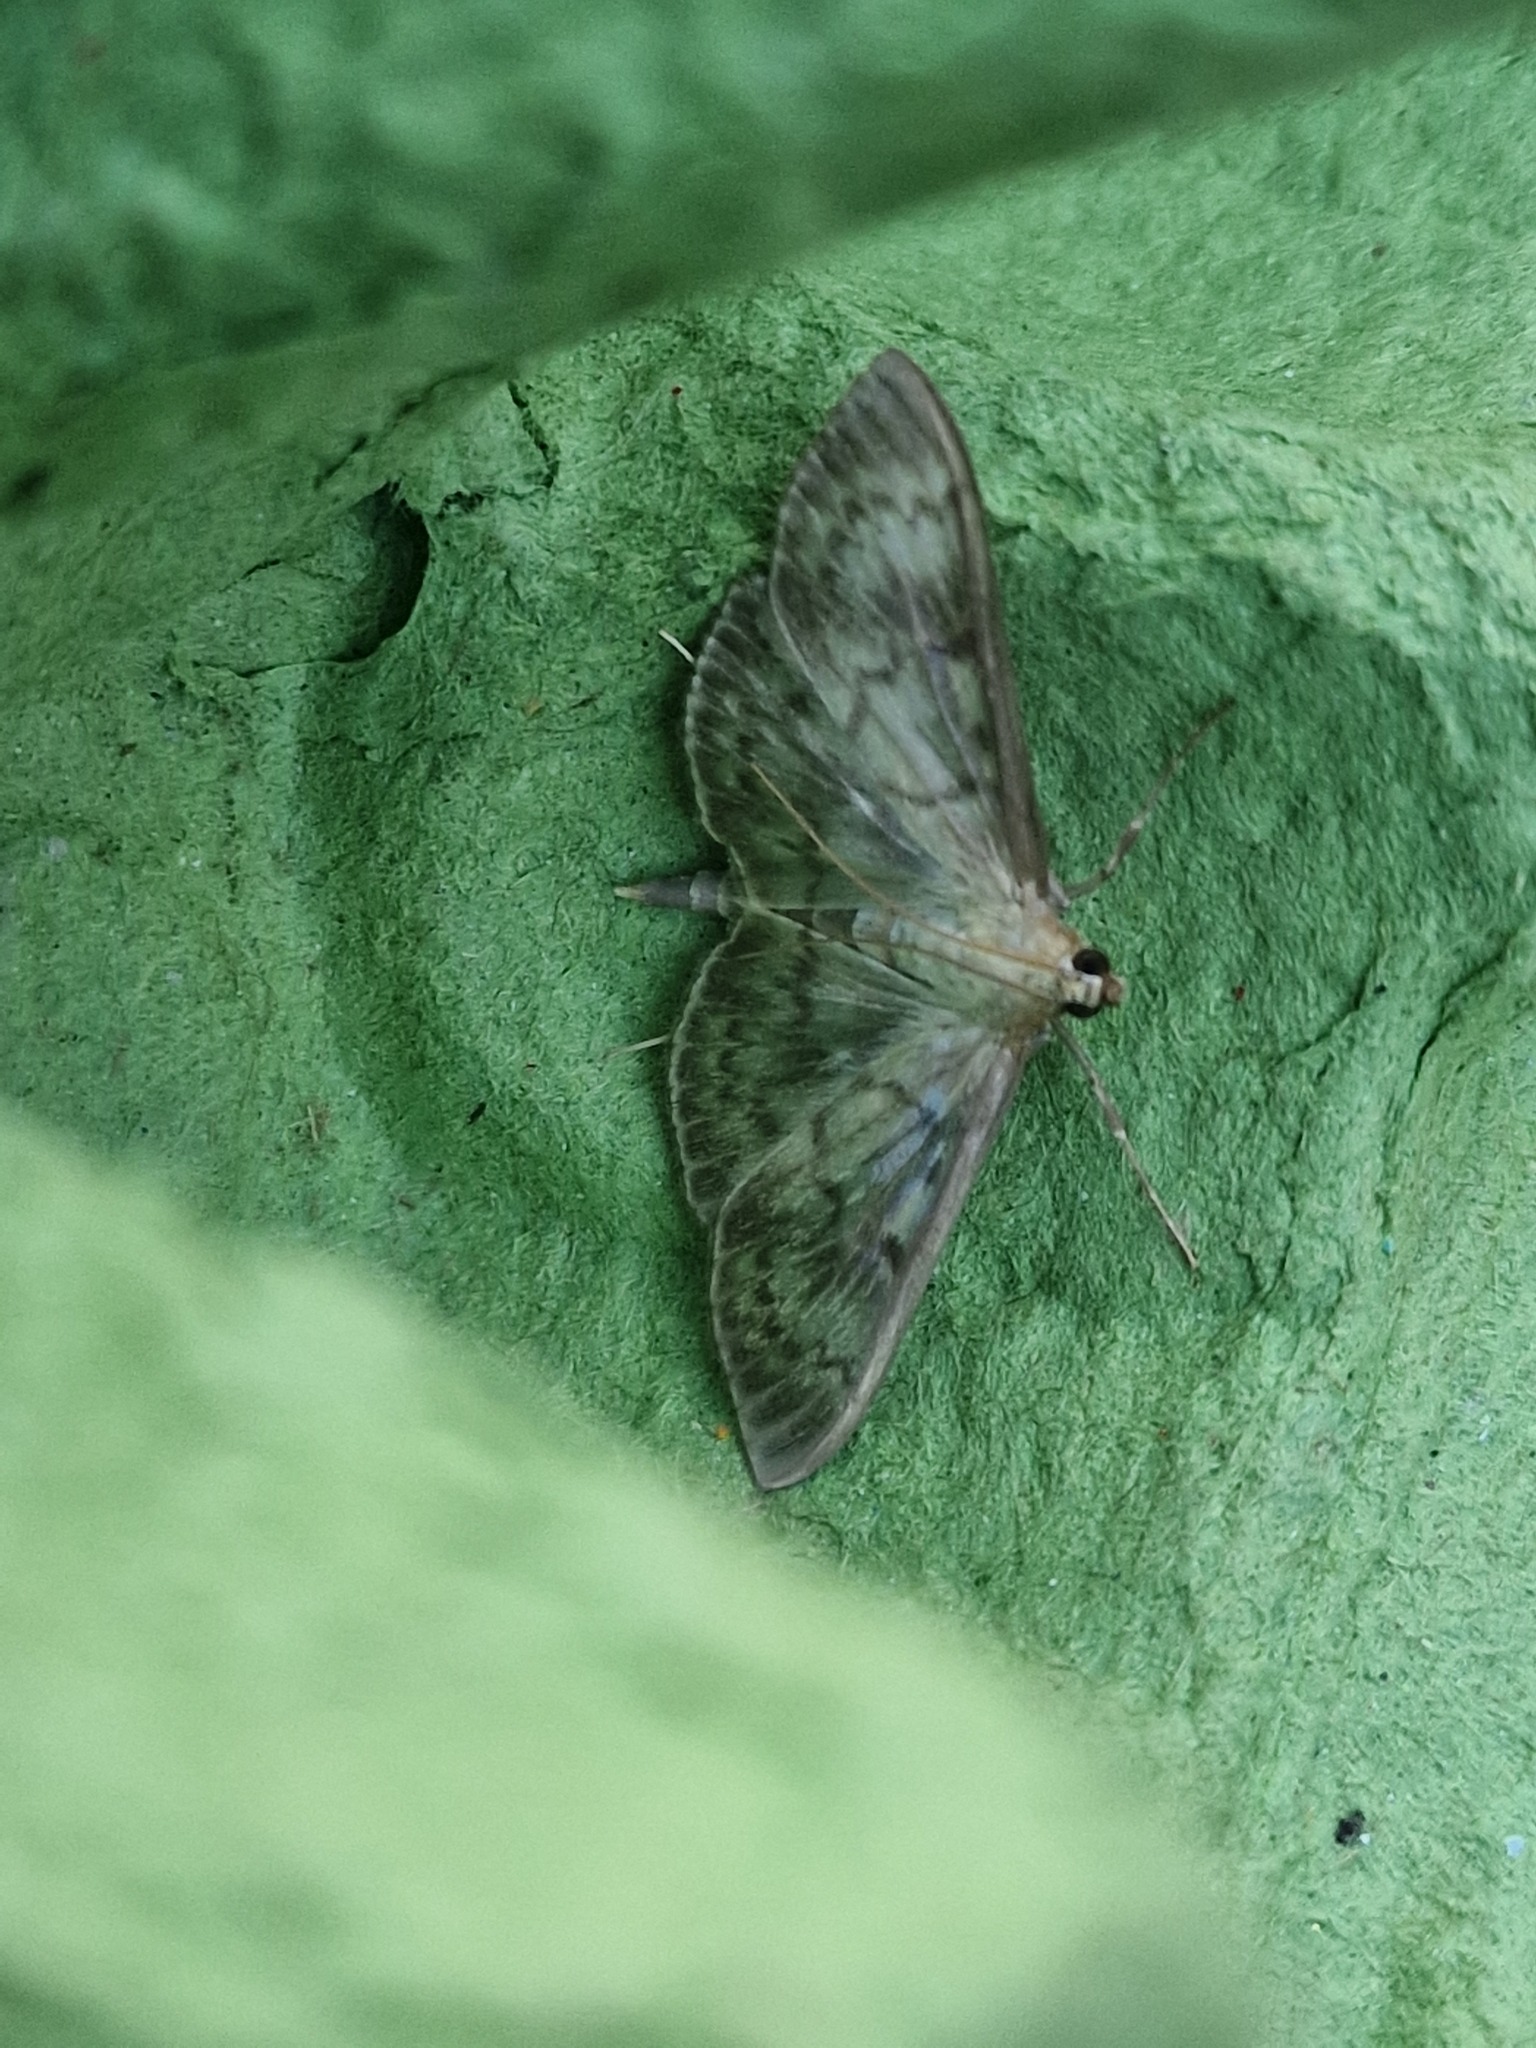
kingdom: Animalia
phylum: Arthropoda
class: Insecta
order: Lepidoptera
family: Crambidae
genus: Patania
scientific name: Patania ruralis
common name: Mother of pearl
